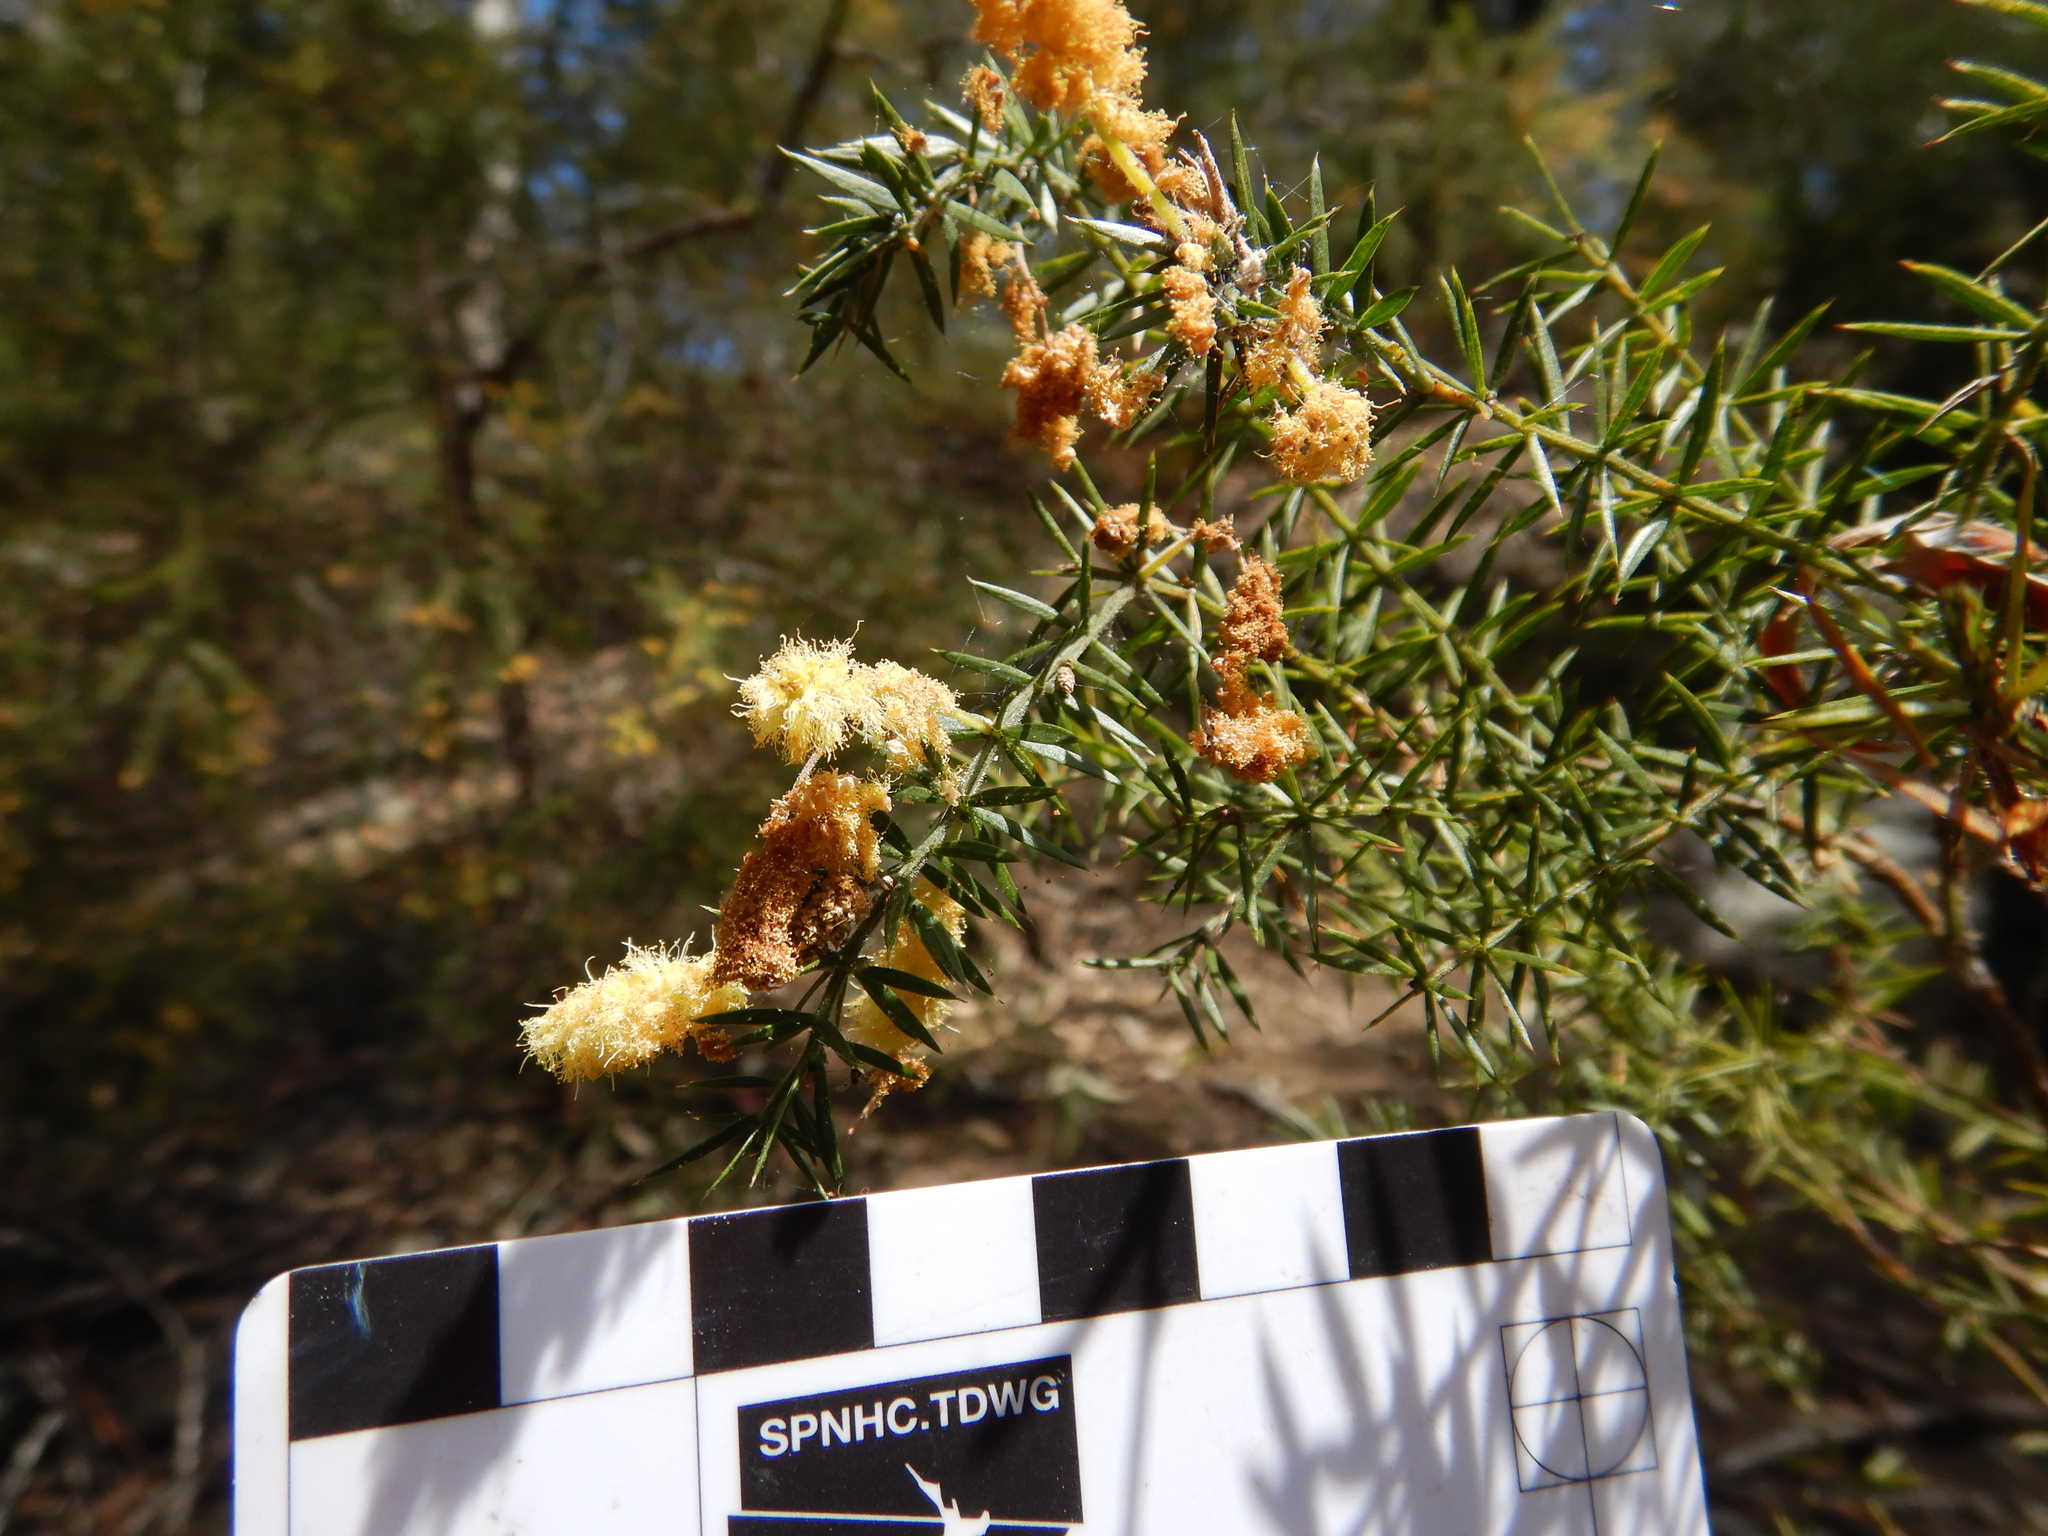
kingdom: Plantae
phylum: Tracheophyta
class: Magnoliopsida
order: Fabales
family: Fabaceae
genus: Acacia
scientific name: Acacia verticillata
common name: Prickly moses
